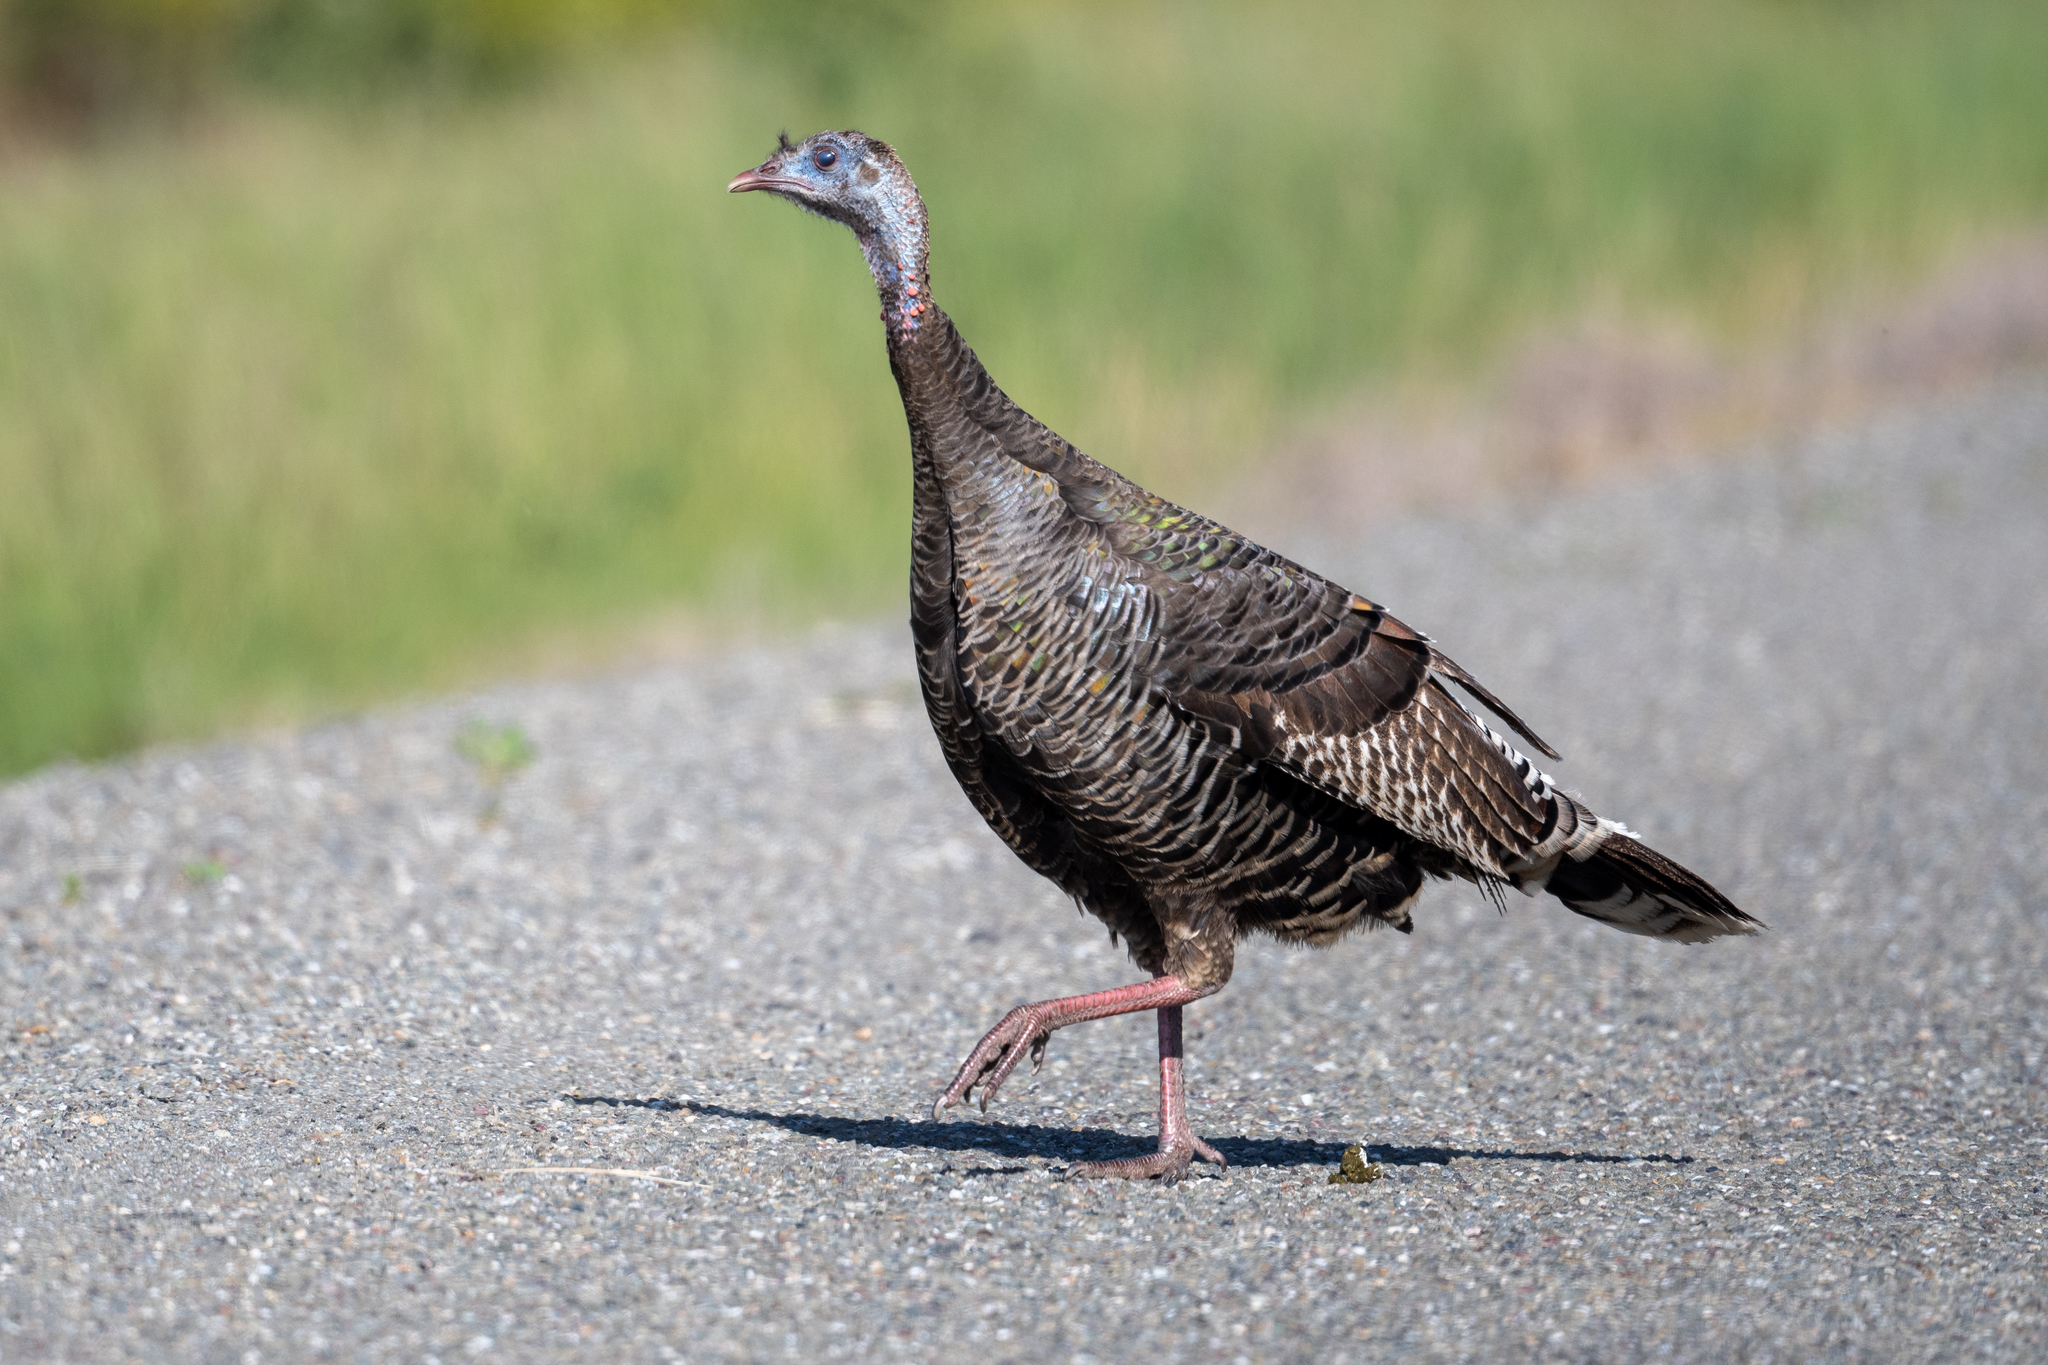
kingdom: Animalia
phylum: Chordata
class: Aves
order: Galliformes
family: Phasianidae
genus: Meleagris
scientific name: Meleagris gallopavo
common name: Wild turkey
